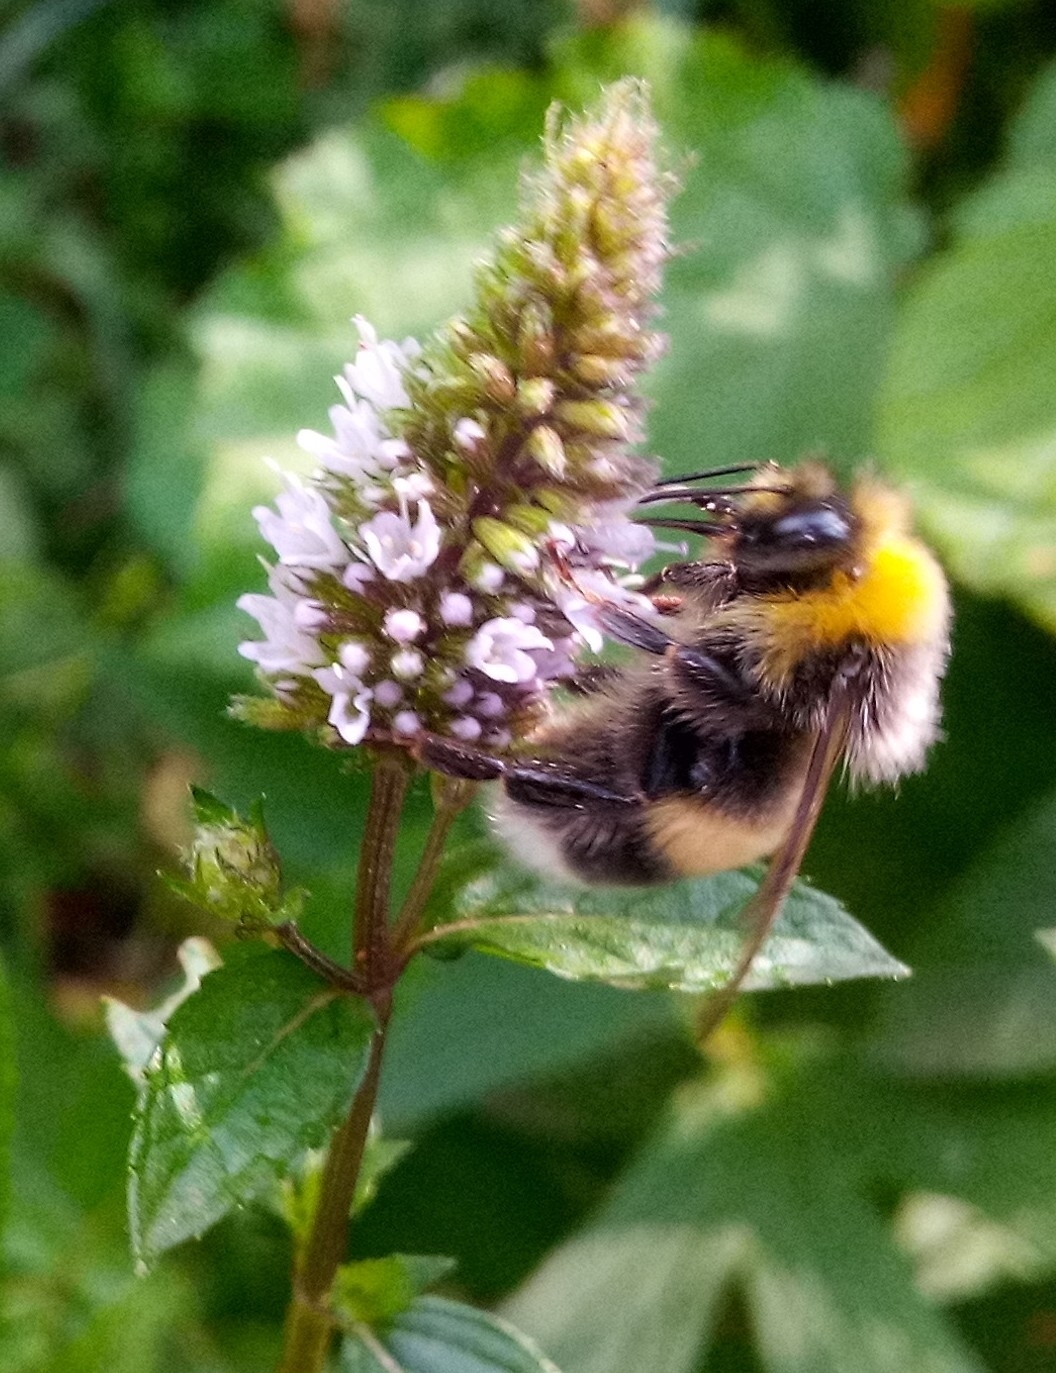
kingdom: Animalia
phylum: Arthropoda
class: Insecta
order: Hymenoptera
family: Apidae
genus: Bombus
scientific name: Bombus lucorum
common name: White-tailed bumblebee
